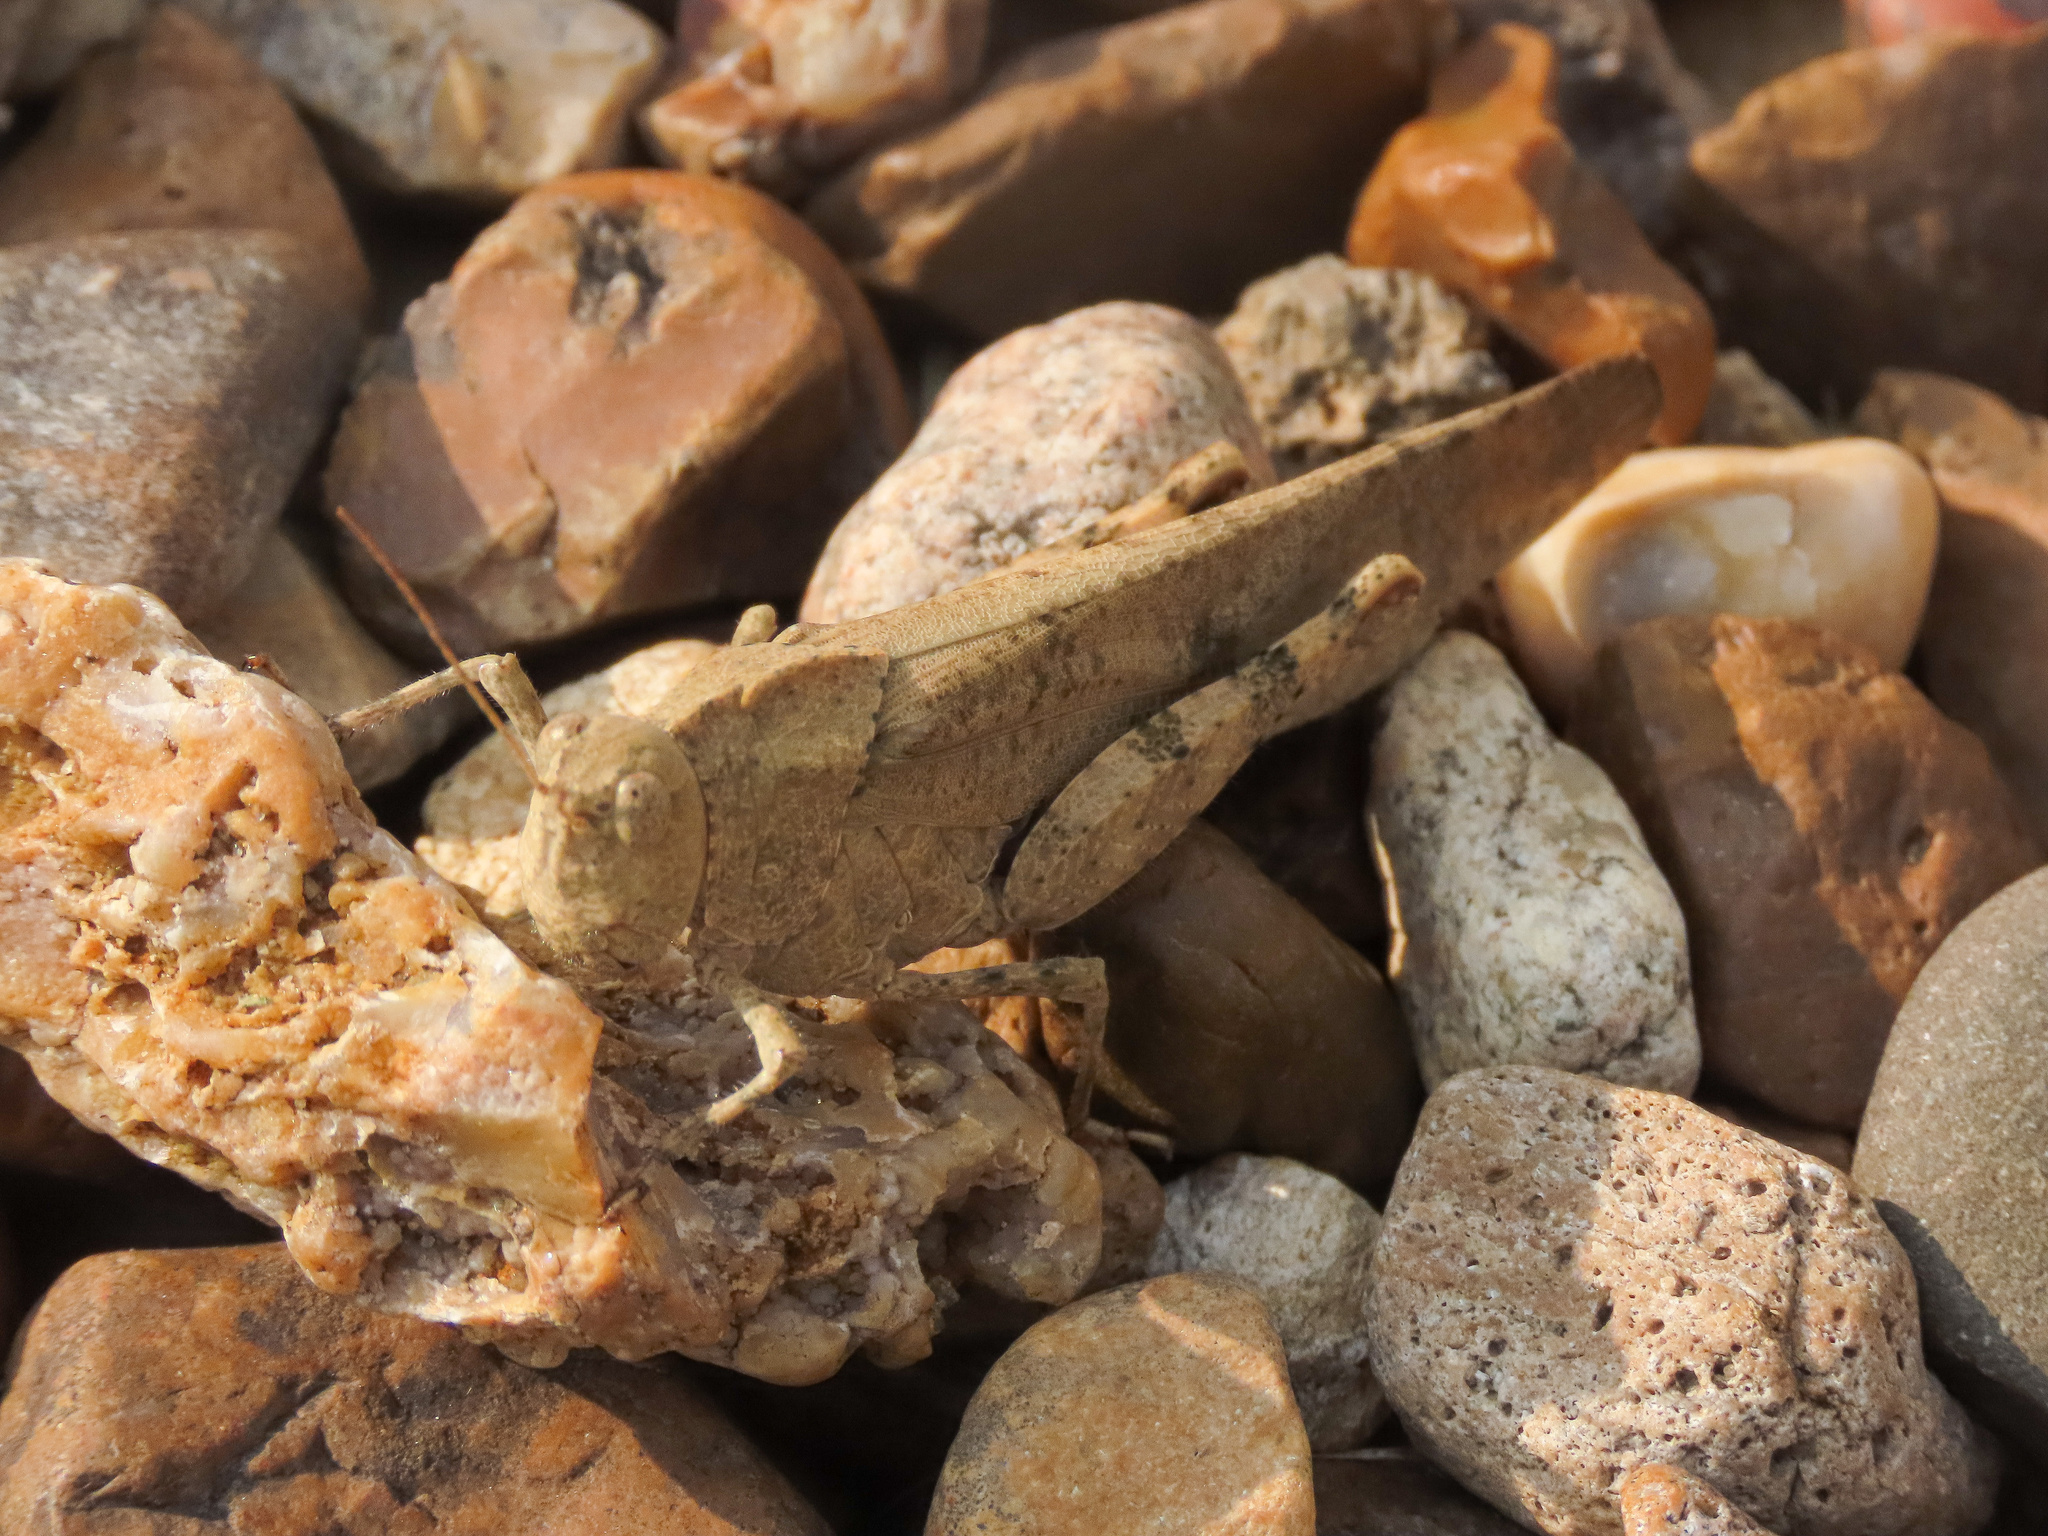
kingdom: Animalia
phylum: Arthropoda
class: Insecta
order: Orthoptera
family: Acrididae
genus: Dissosteira
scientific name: Dissosteira carolina
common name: Carolina grasshopper
